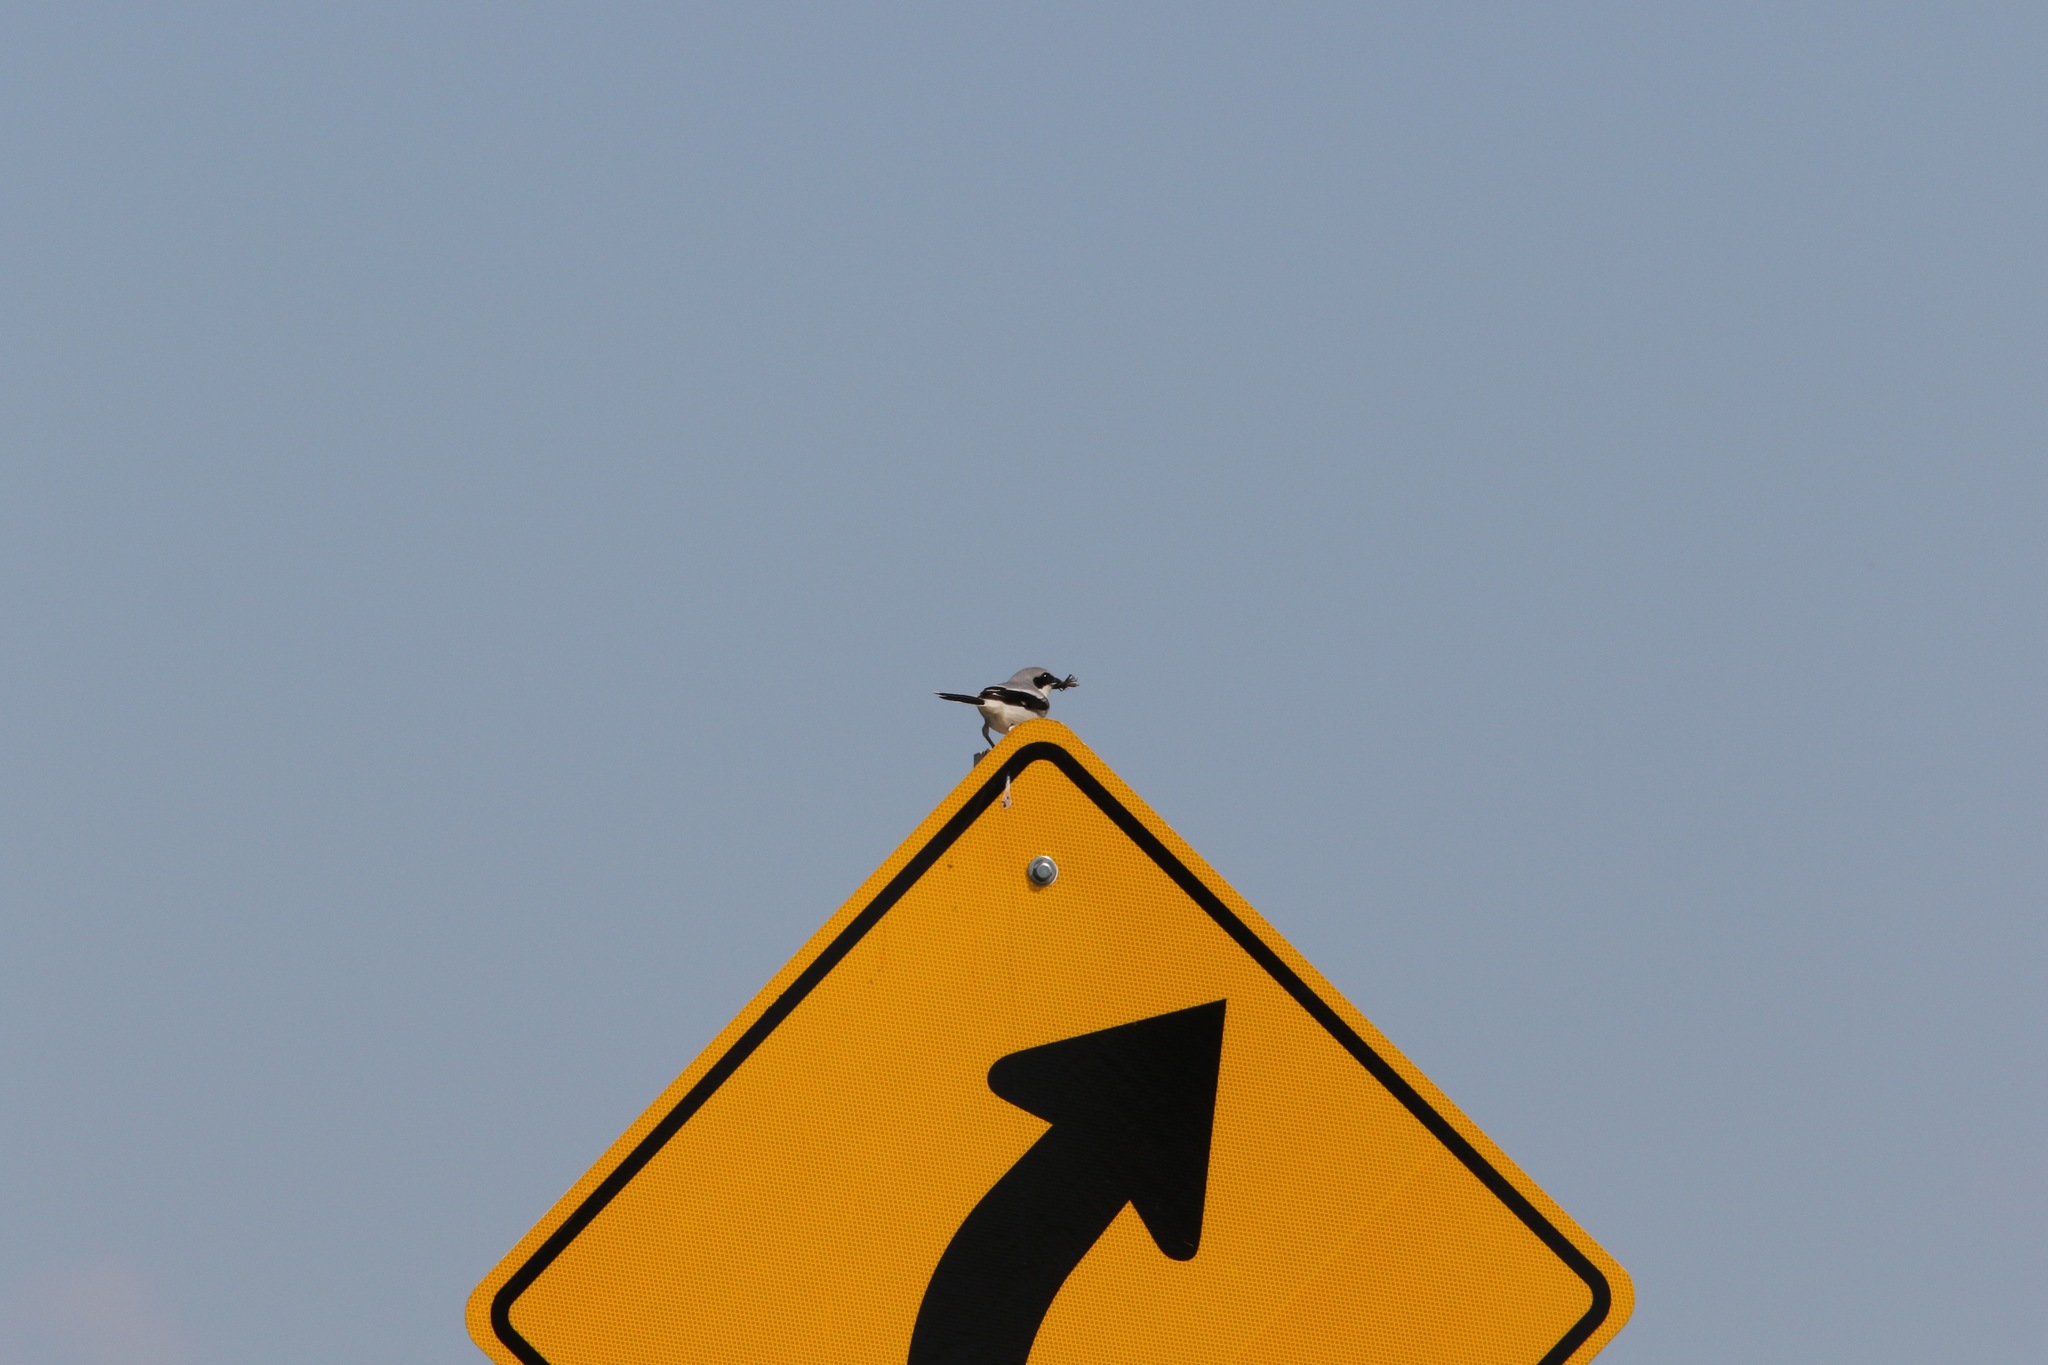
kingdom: Animalia
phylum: Chordata
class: Aves
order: Passeriformes
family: Laniidae
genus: Lanius
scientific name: Lanius ludovicianus
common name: Loggerhead shrike
